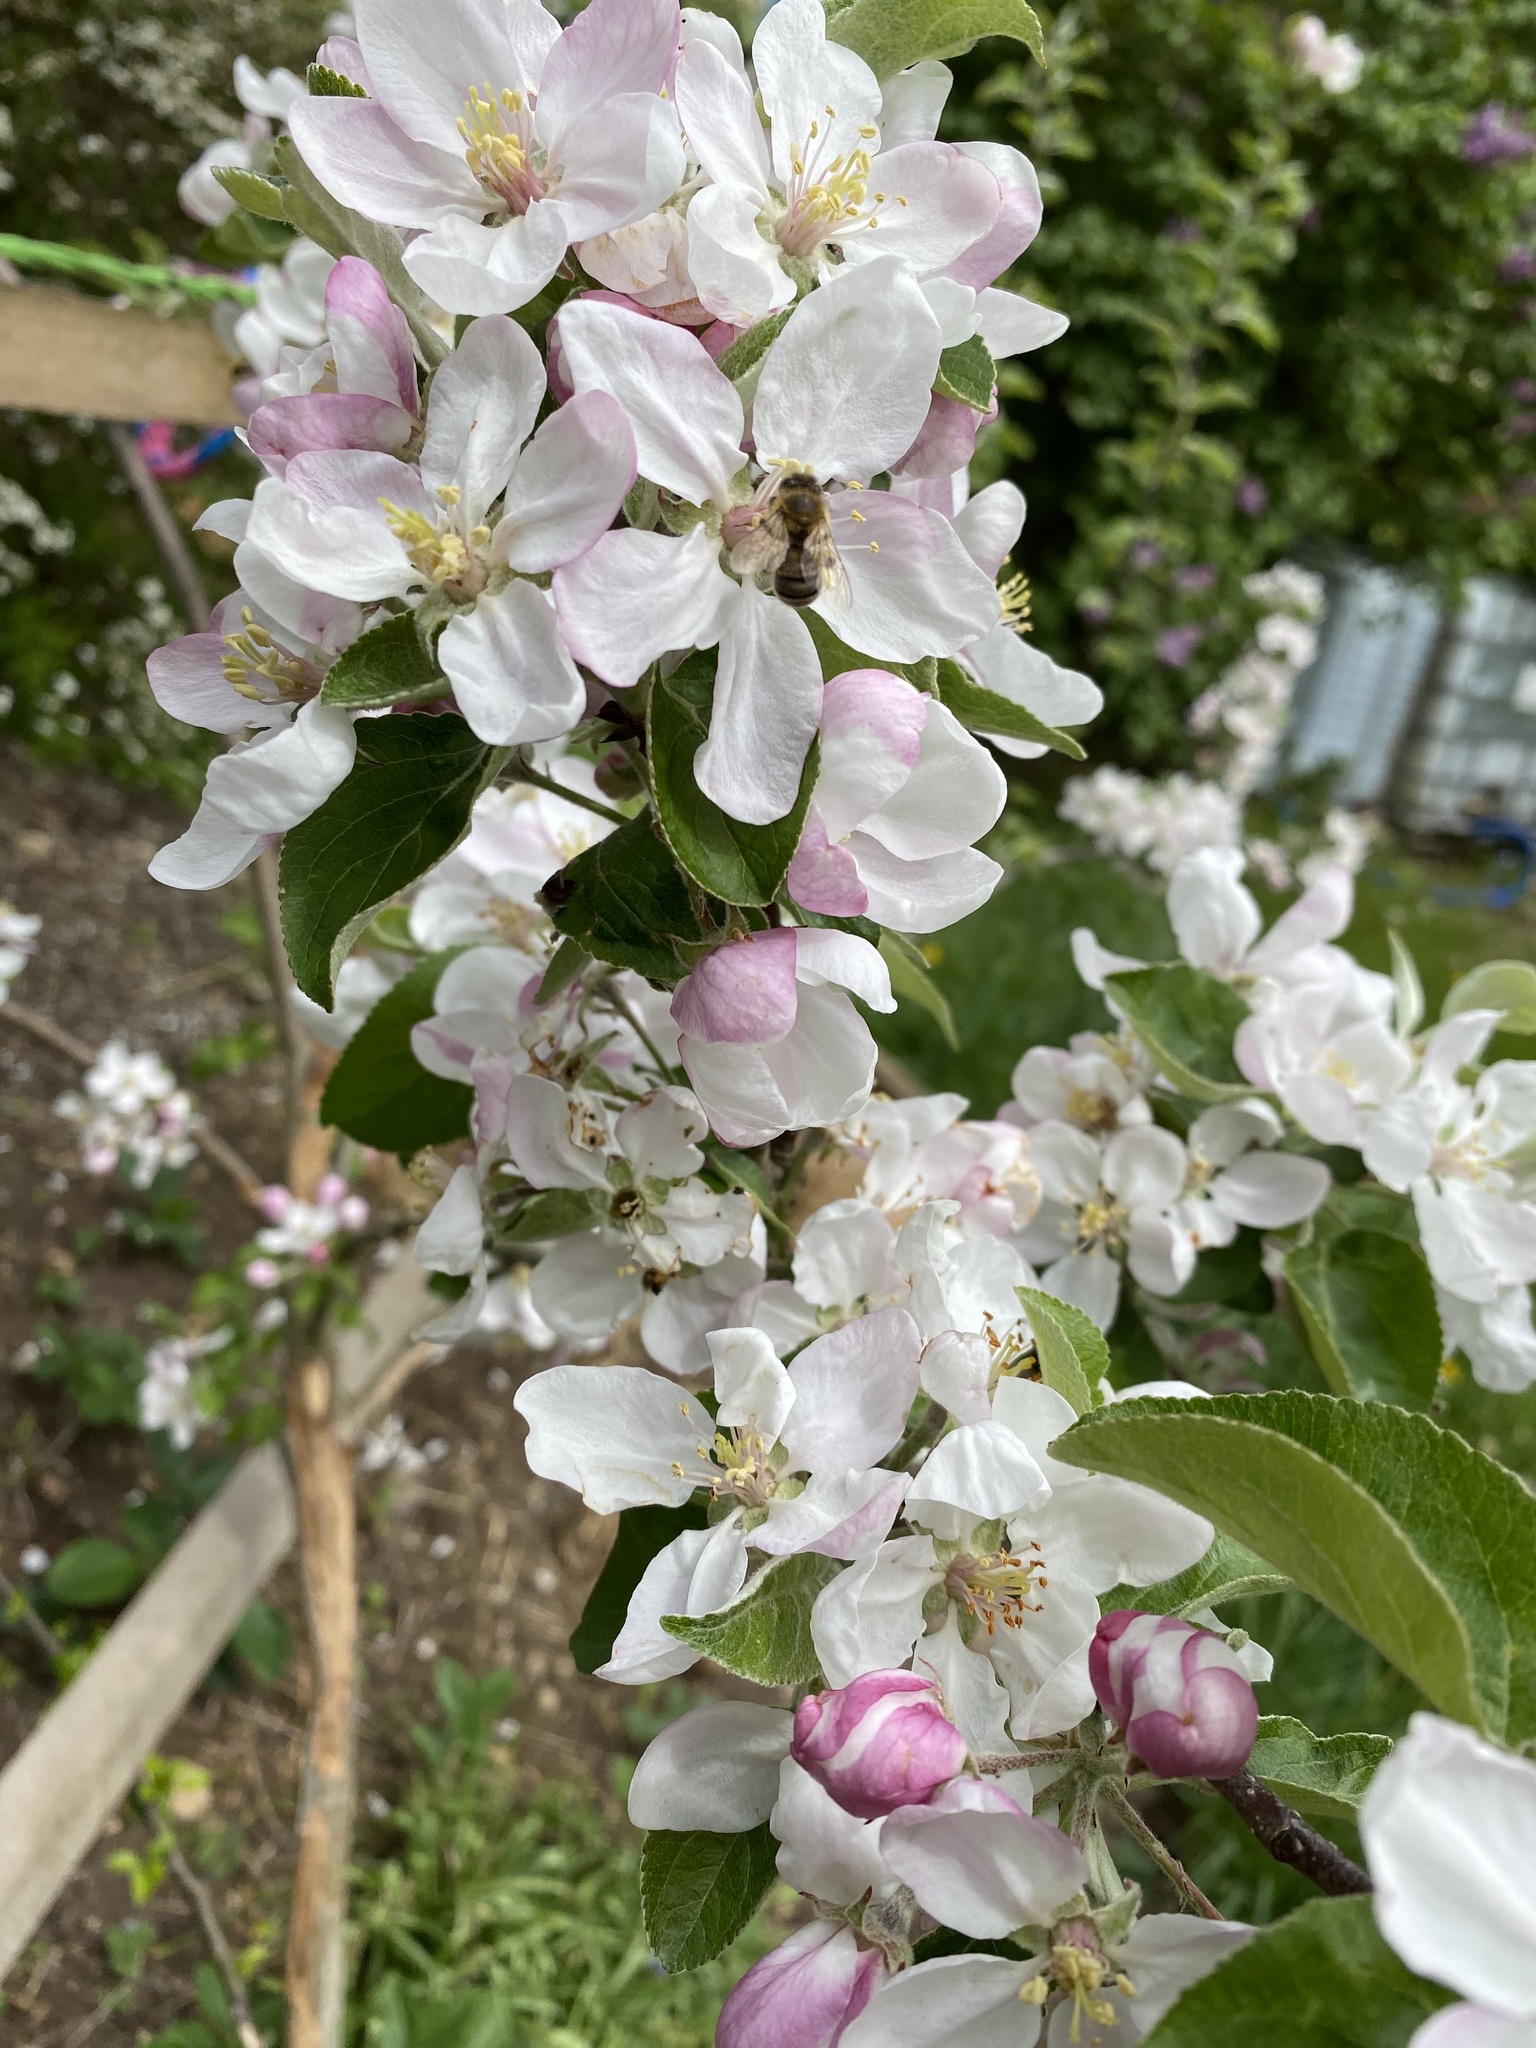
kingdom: Animalia
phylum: Arthropoda
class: Insecta
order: Hymenoptera
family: Apidae
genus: Apis
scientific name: Apis mellifera
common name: Honey bee
